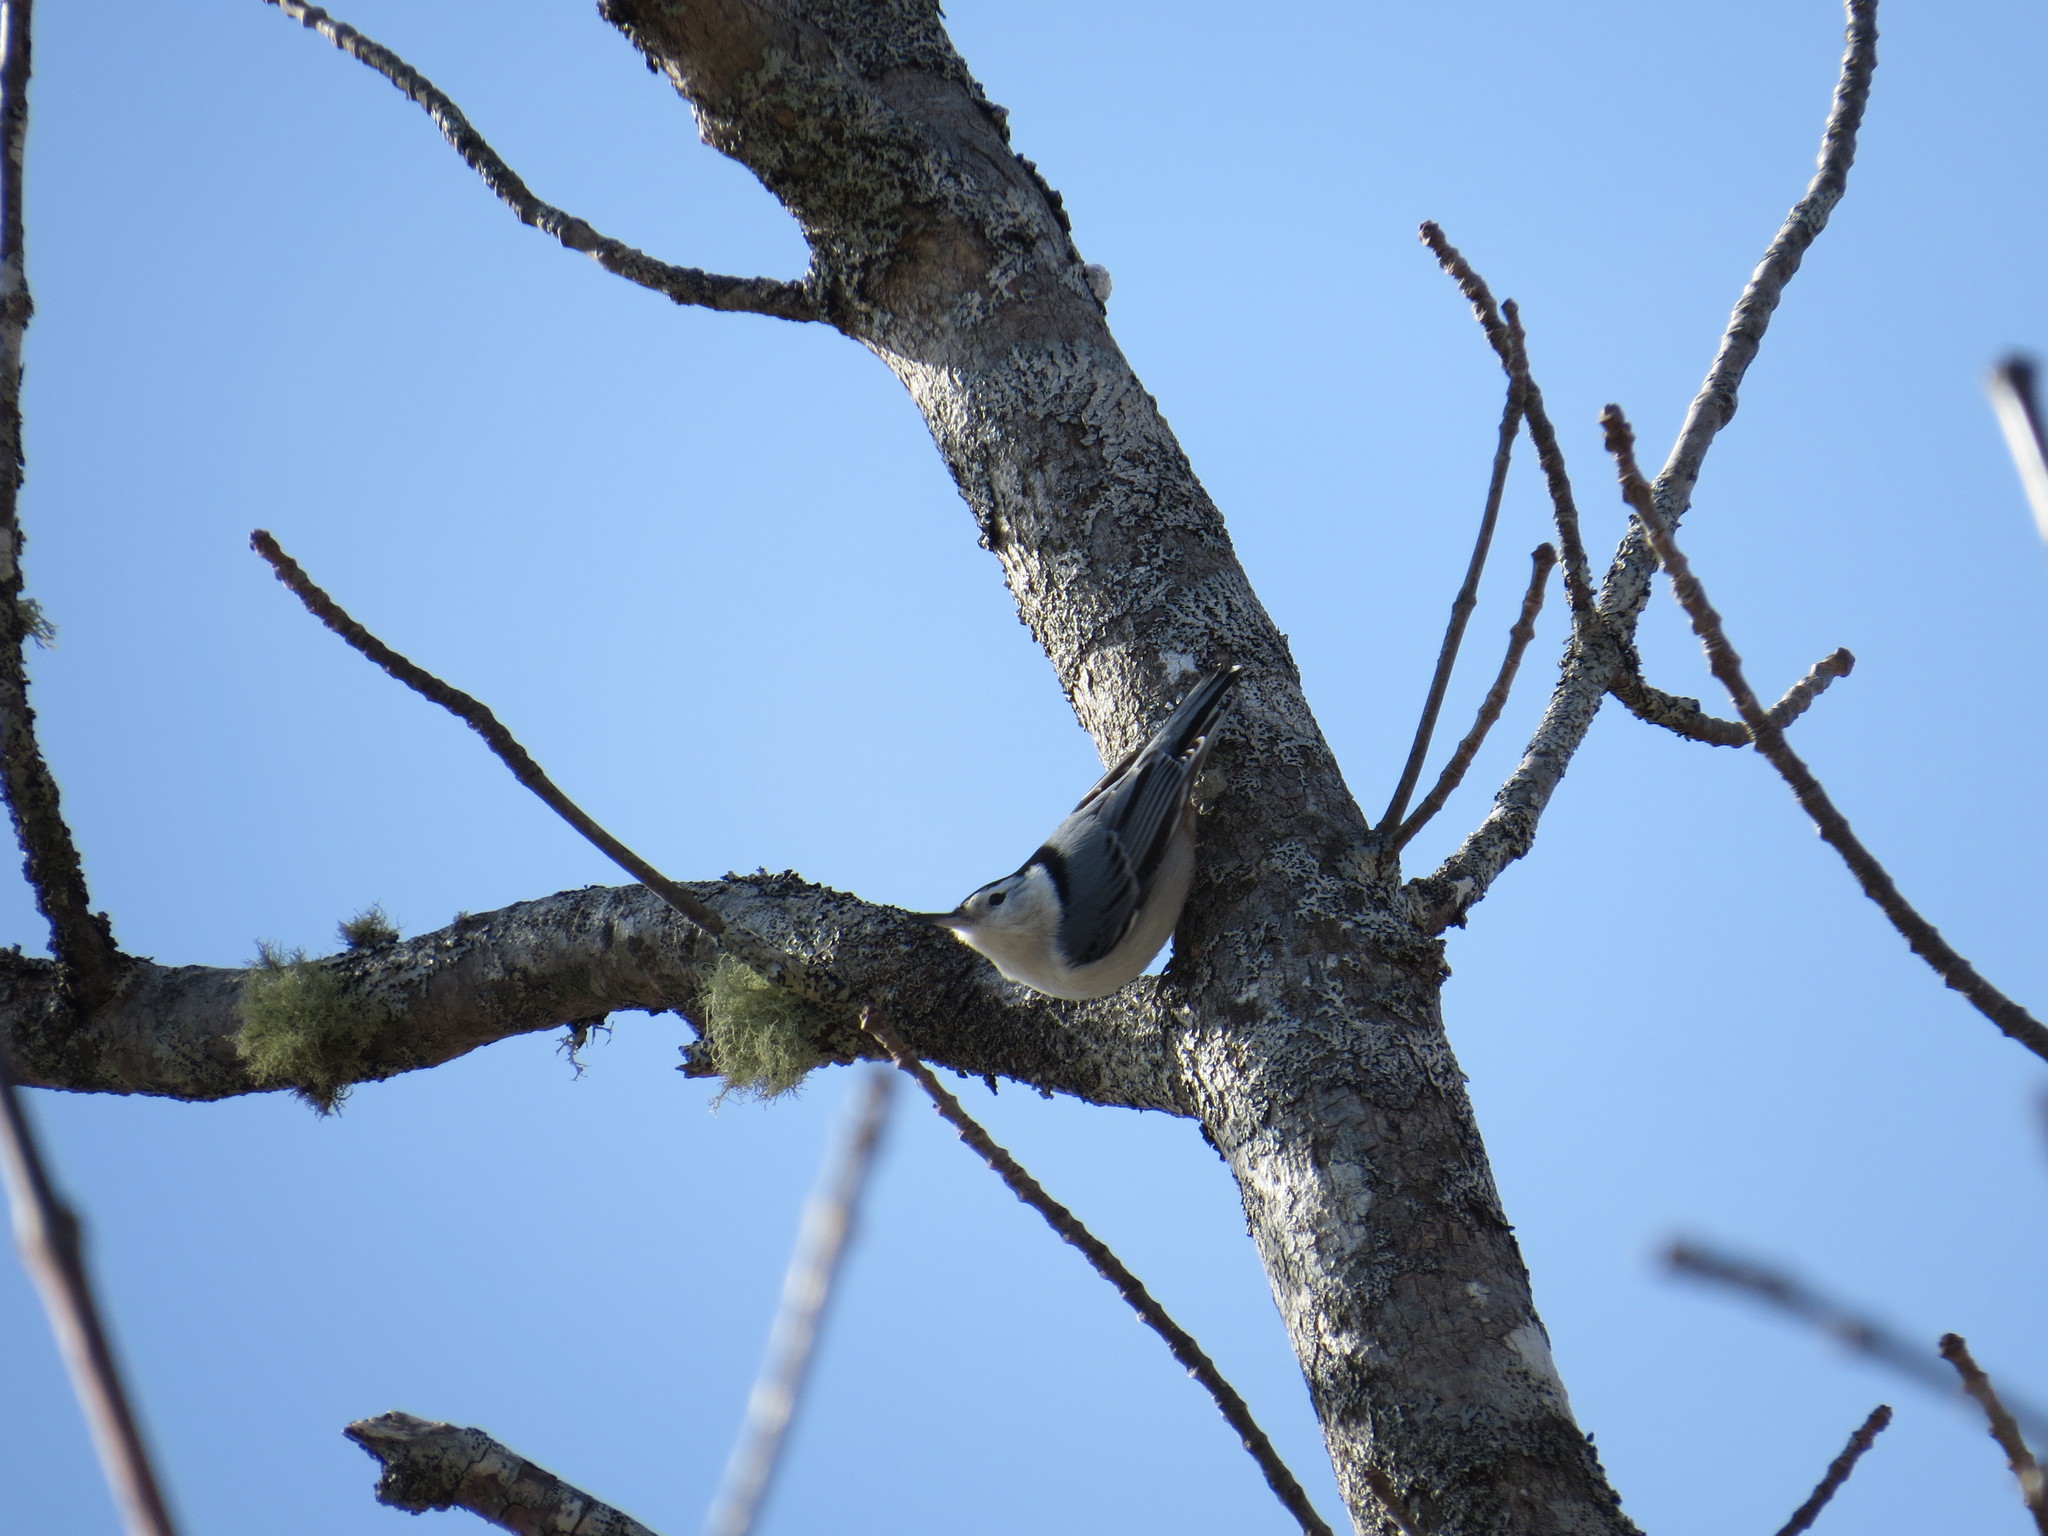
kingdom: Animalia
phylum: Chordata
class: Aves
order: Passeriformes
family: Sittidae
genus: Sitta
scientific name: Sitta carolinensis
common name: White-breasted nuthatch
